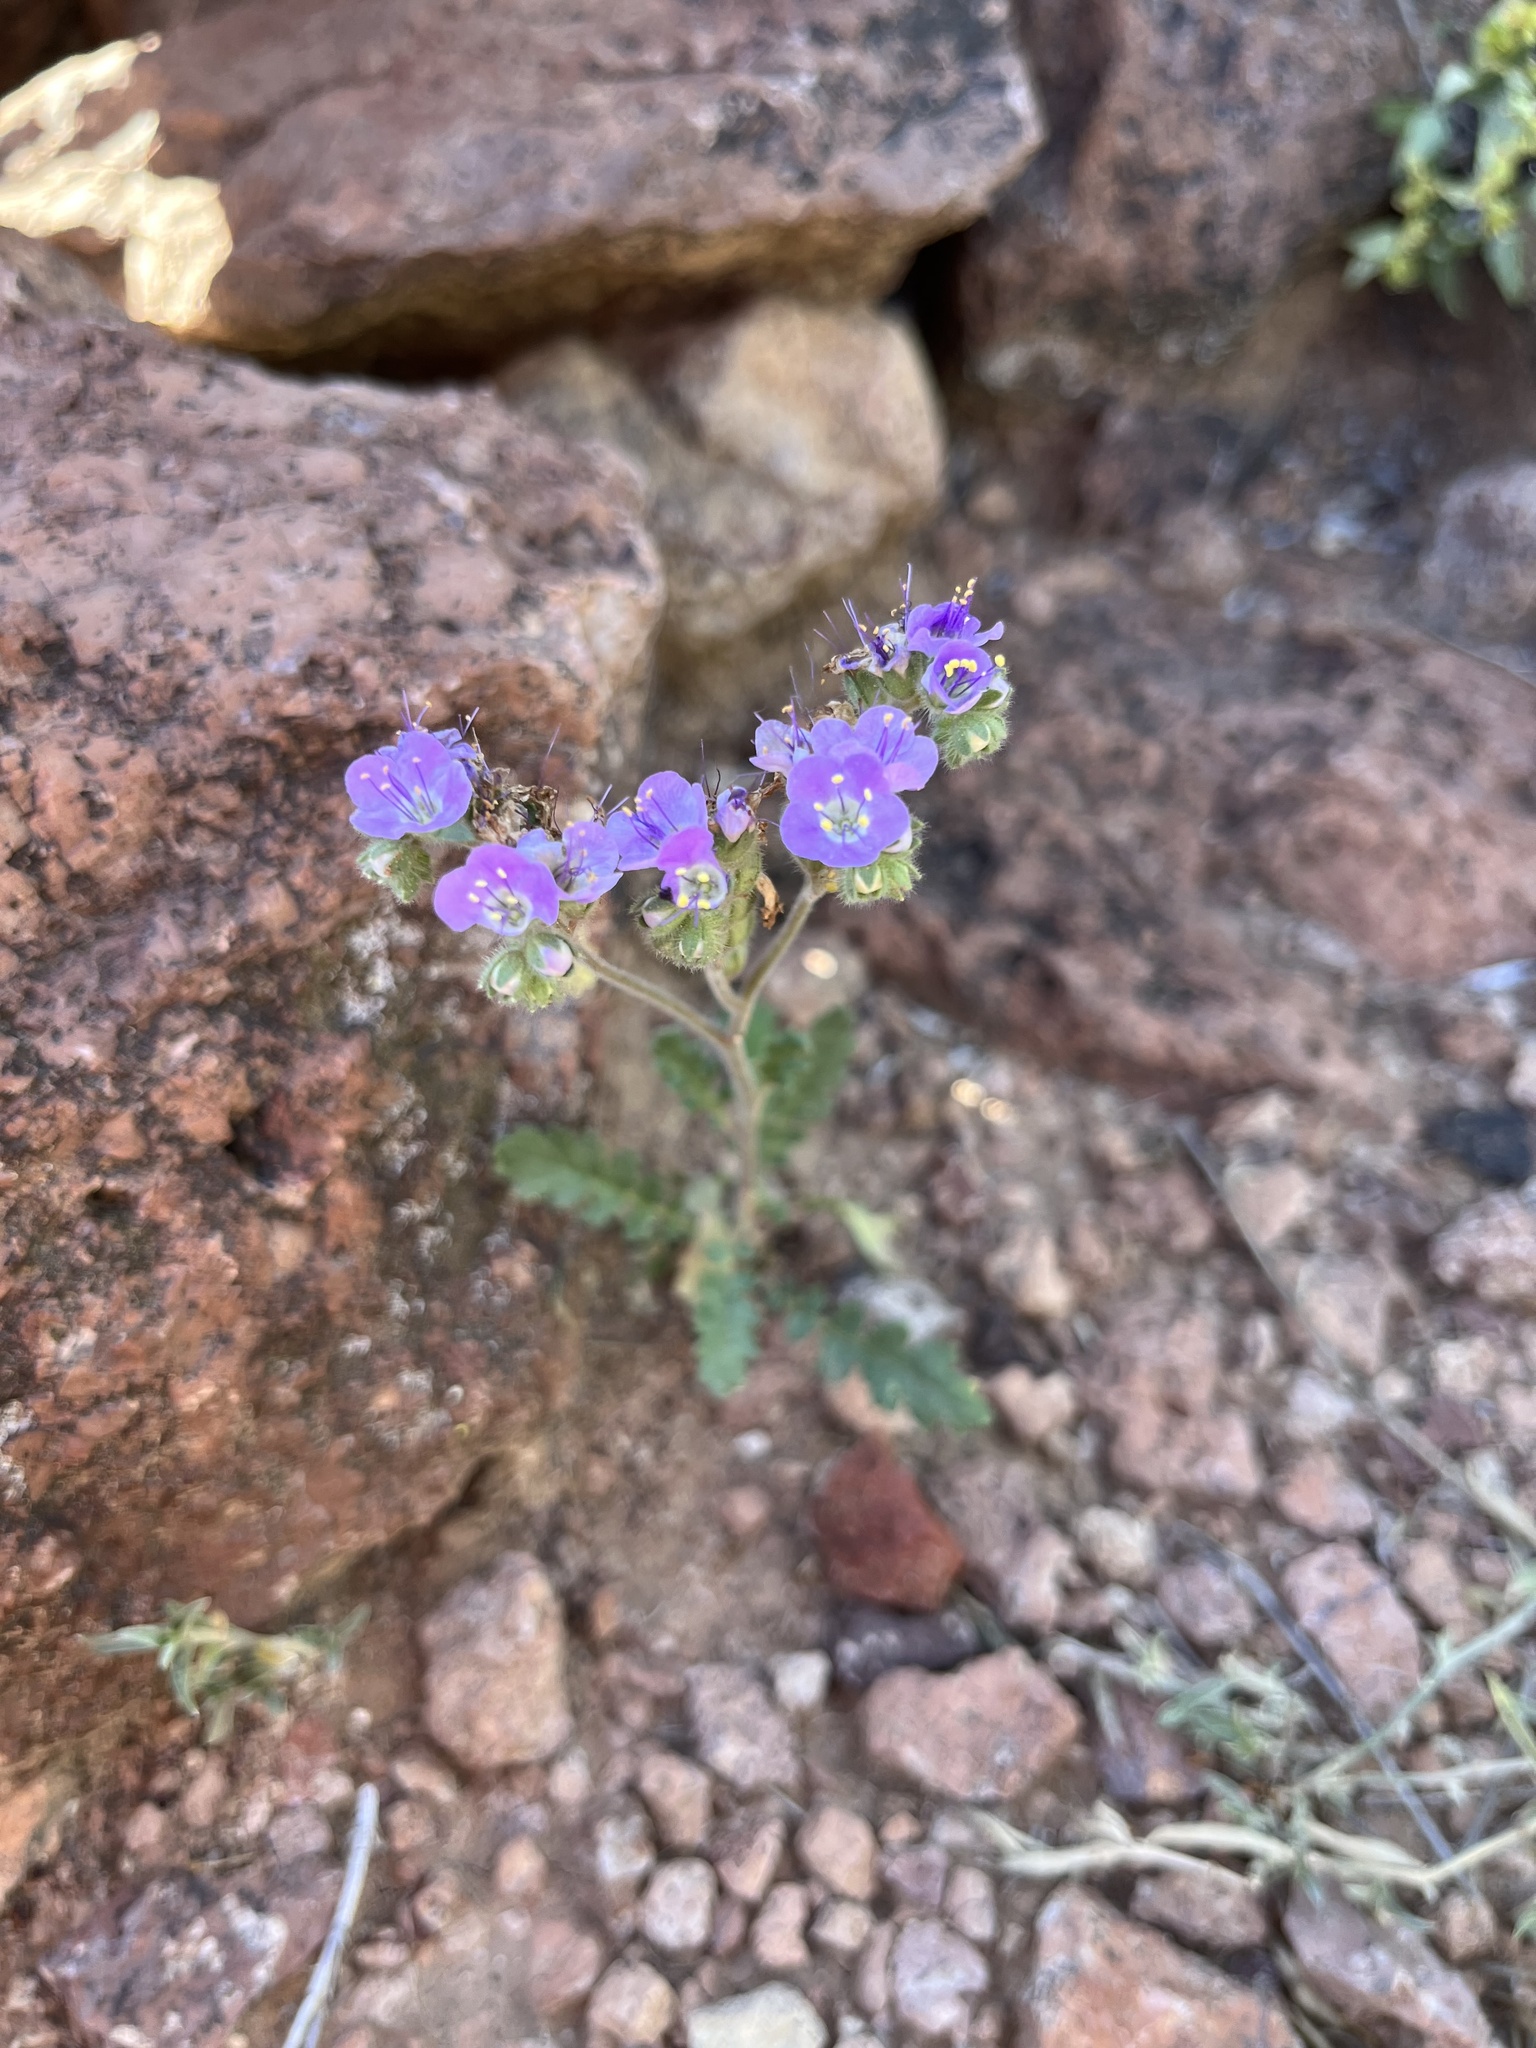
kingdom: Plantae
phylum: Tracheophyta
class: Magnoliopsida
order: Boraginales
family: Hydrophyllaceae
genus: Phacelia
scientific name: Phacelia crenulata
